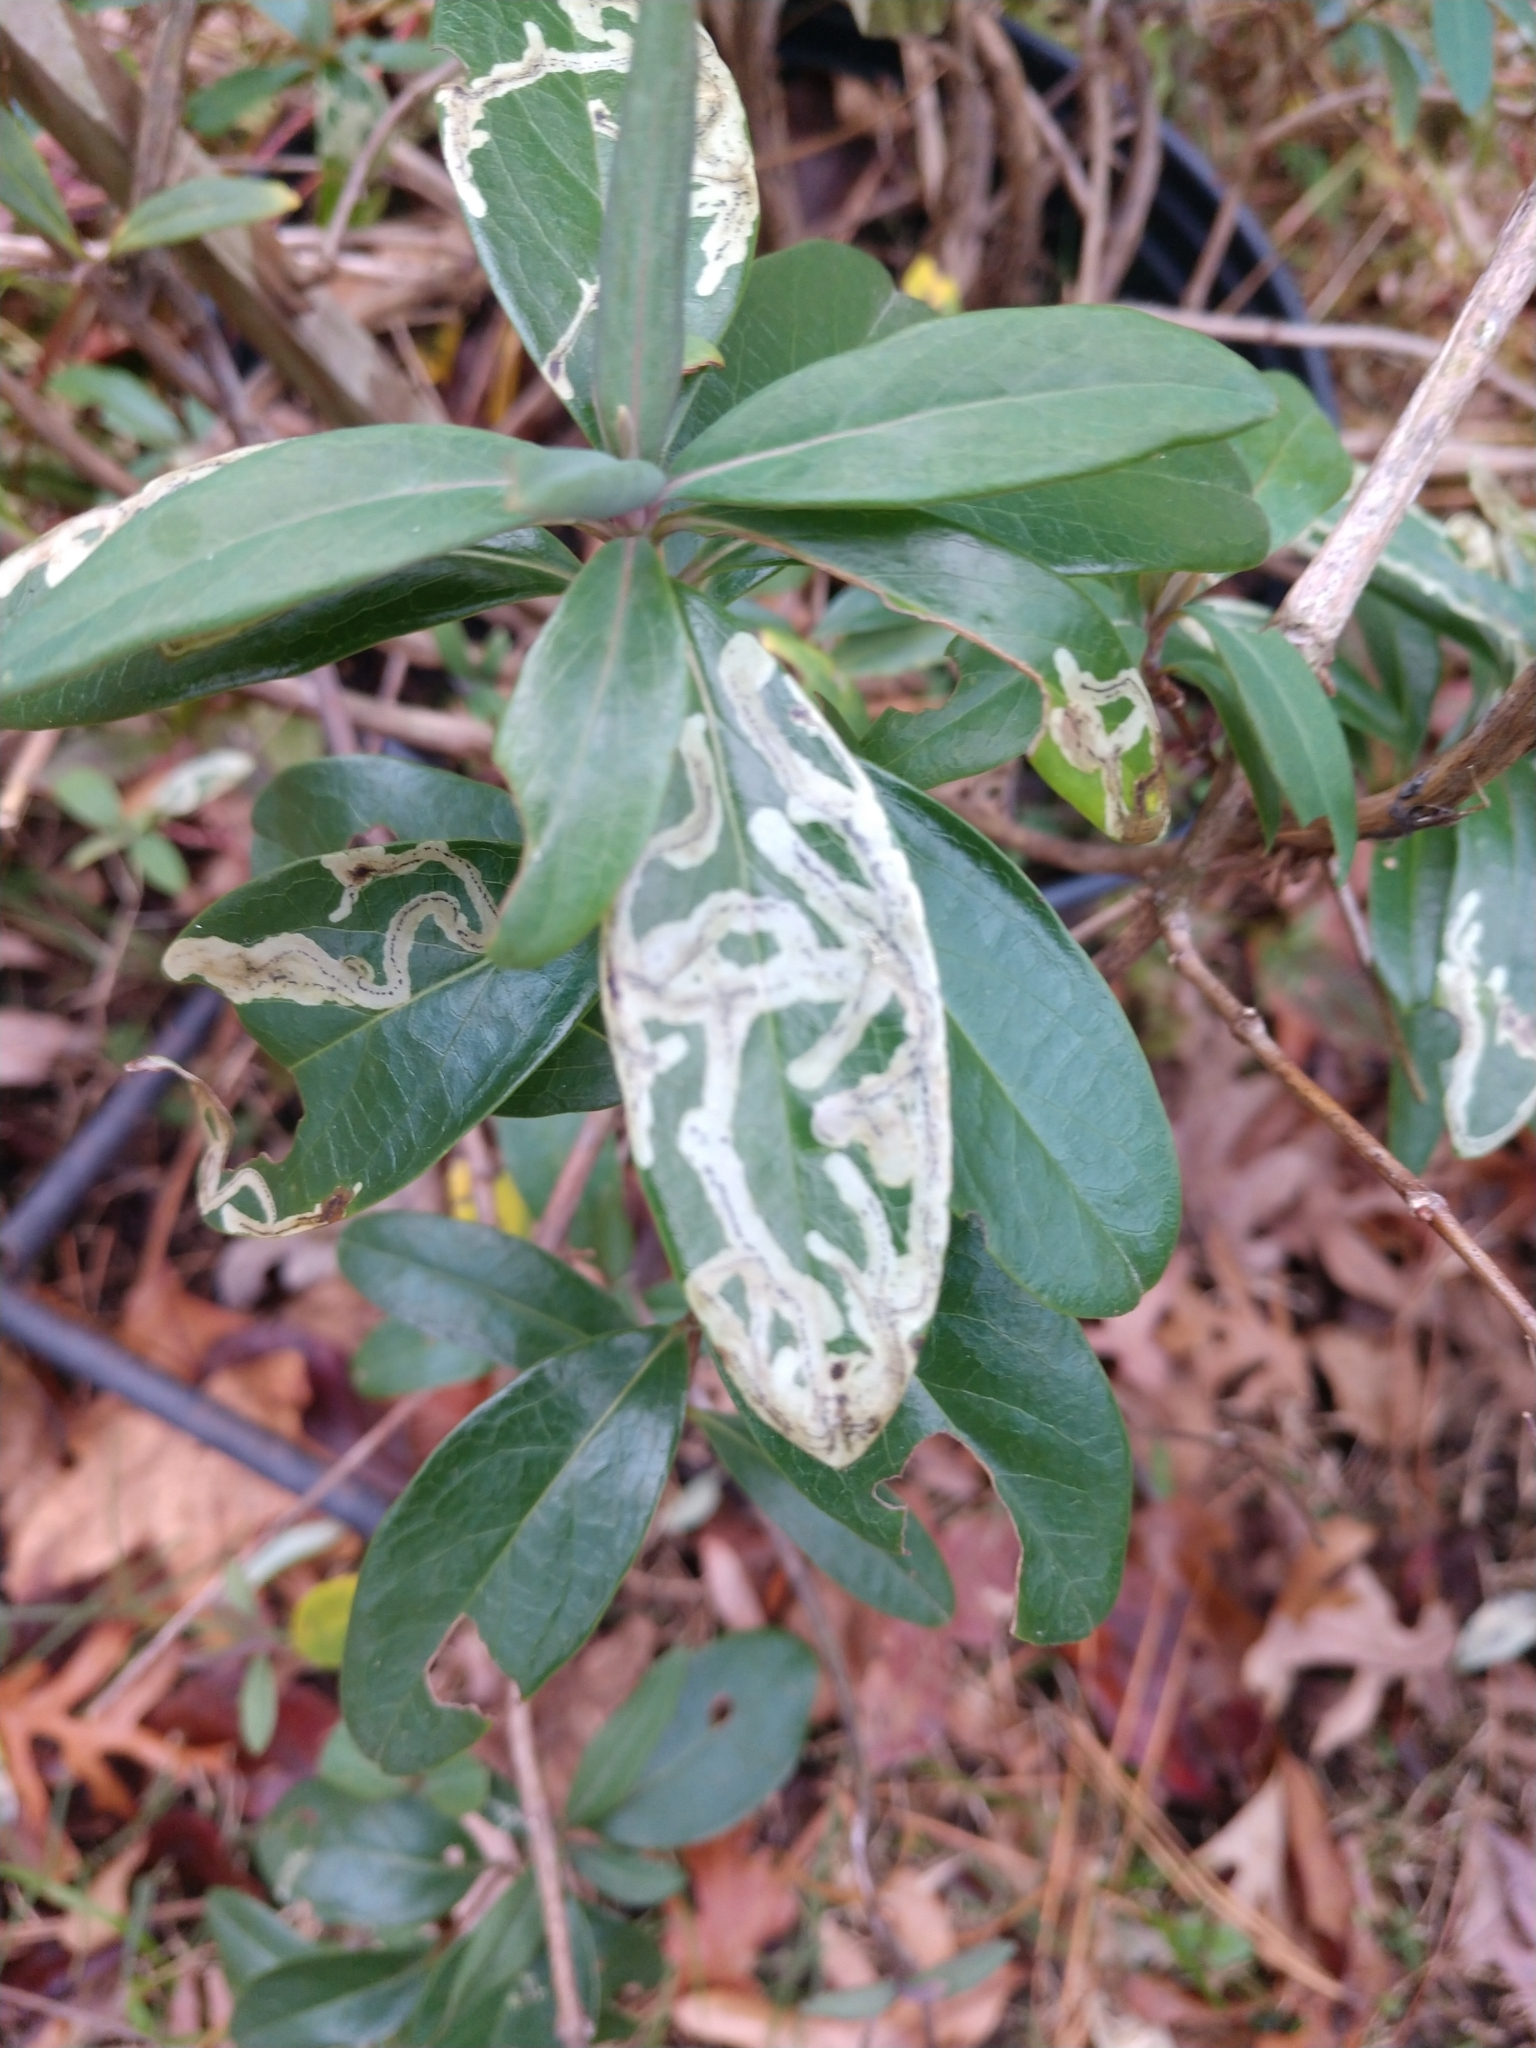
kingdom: Animalia
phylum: Arthropoda
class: Insecta
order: Diptera
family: Agromyzidae
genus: Phytomyza
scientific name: Phytomyza sempervirentis
